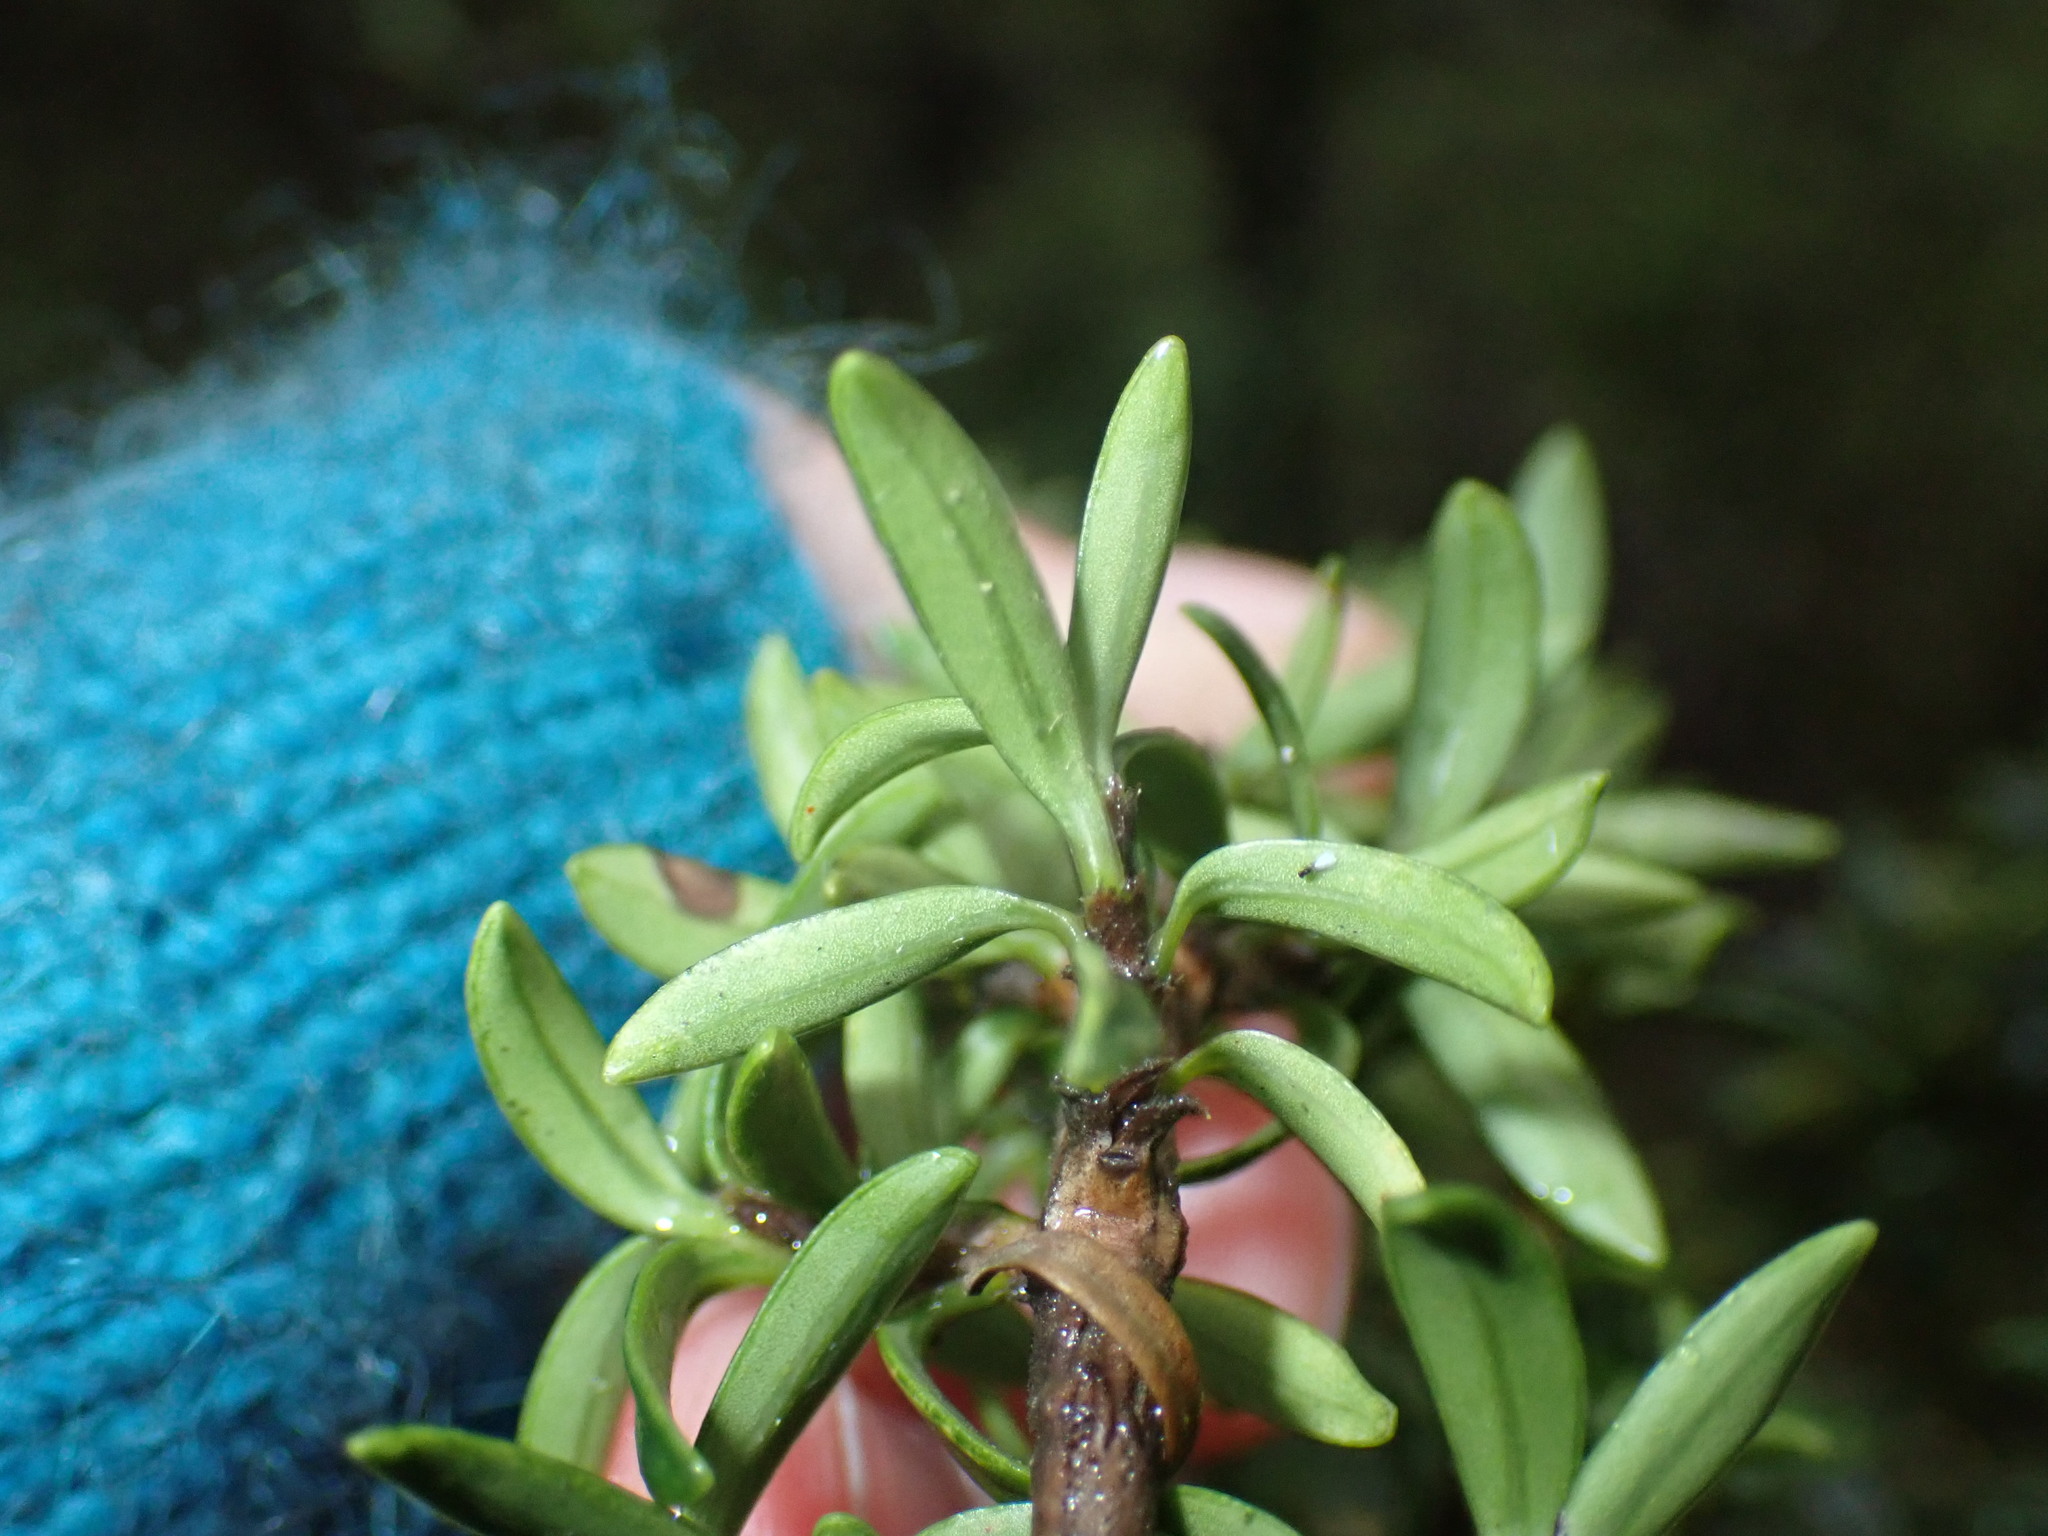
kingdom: Plantae
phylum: Tracheophyta
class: Magnoliopsida
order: Gentianales
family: Rubiaceae
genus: Coprosma
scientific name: Coprosma pseudocuneata
